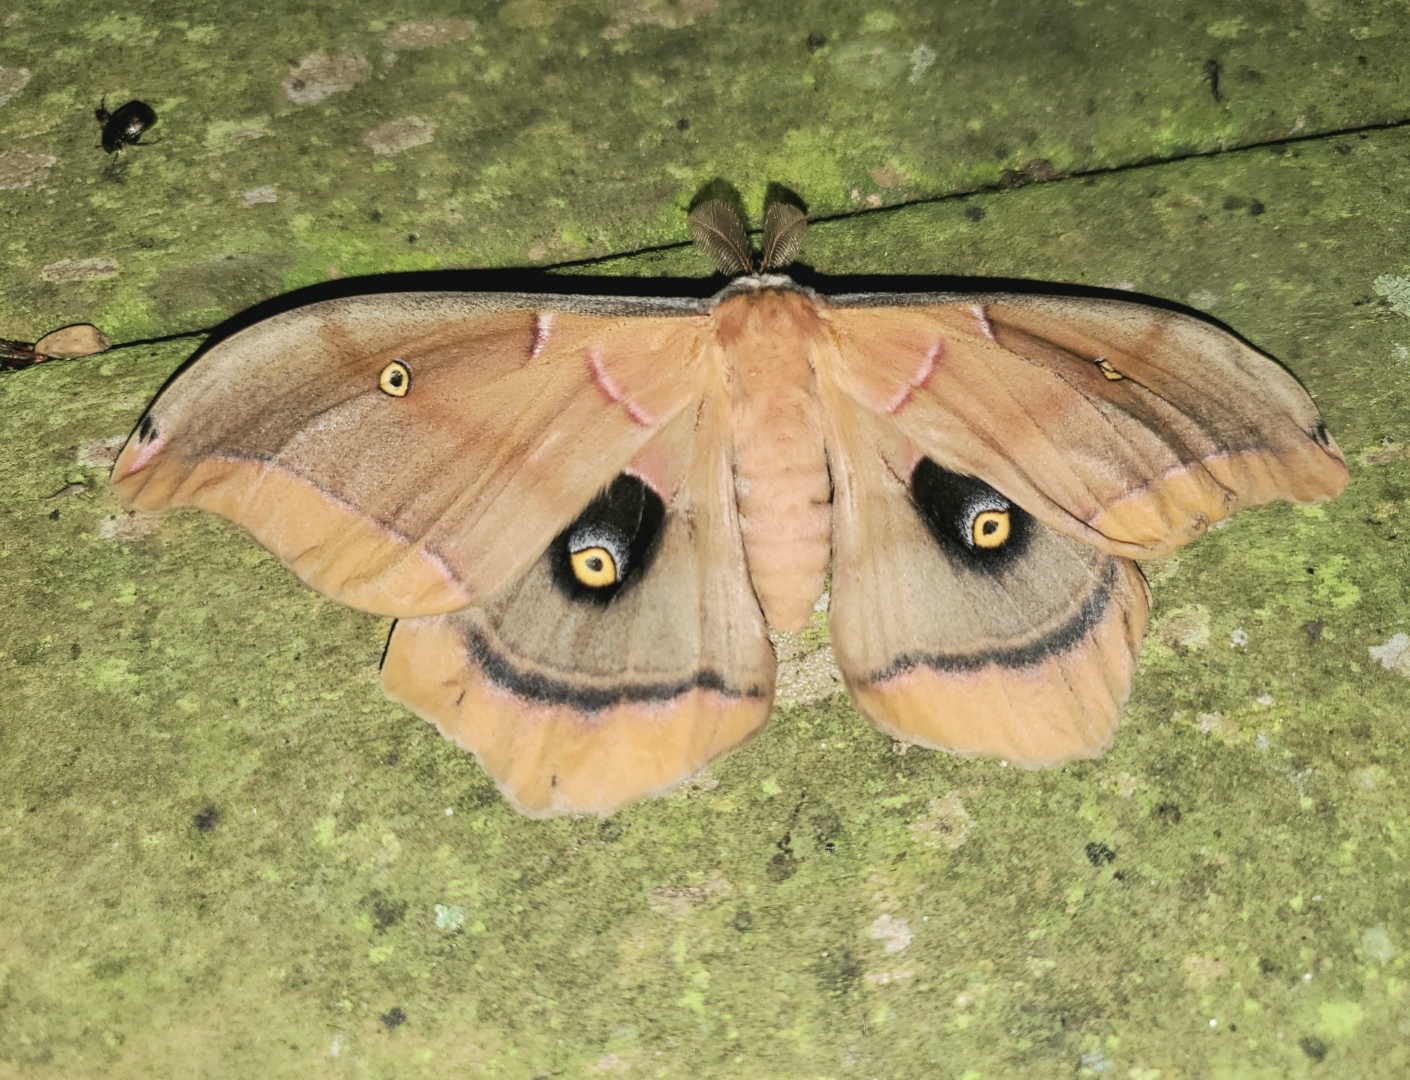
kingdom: Animalia
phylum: Arthropoda
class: Insecta
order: Lepidoptera
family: Saturniidae
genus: Antheraea
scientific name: Antheraea polyphemus
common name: Polyphemus moth
